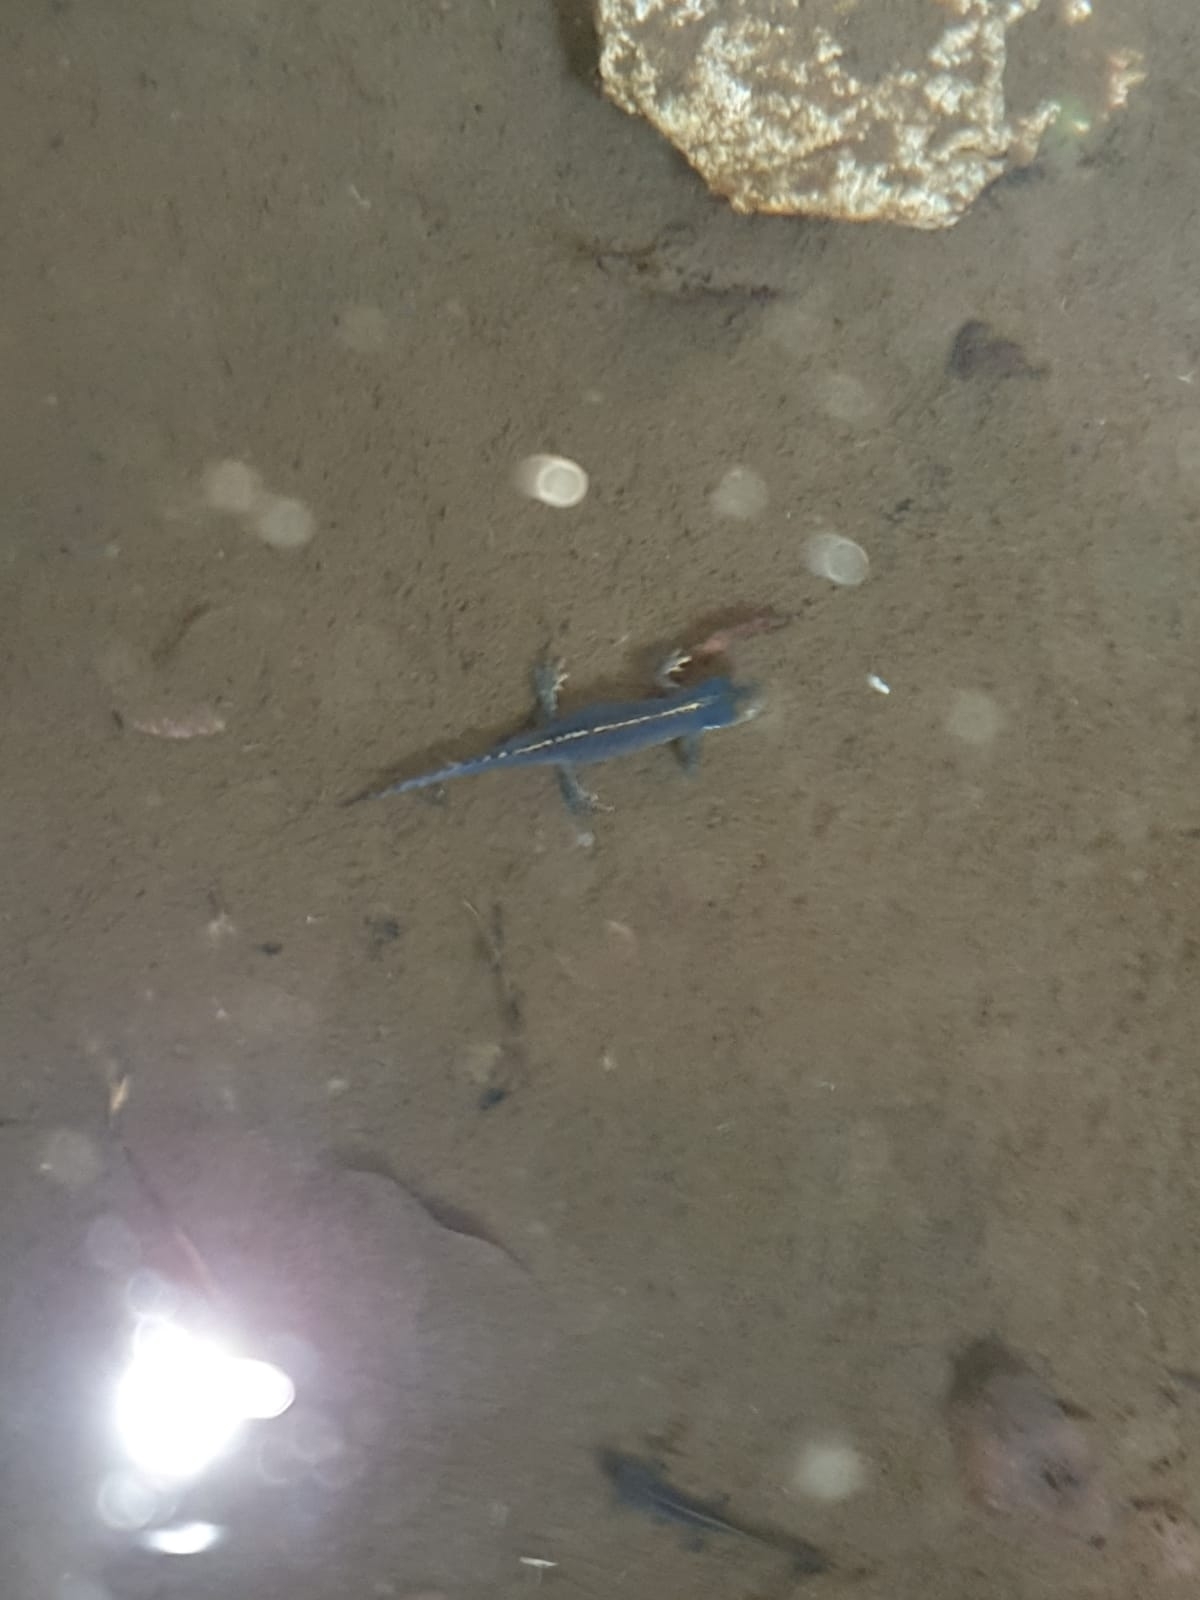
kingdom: Animalia
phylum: Chordata
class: Amphibia
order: Caudata
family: Salamandridae
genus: Ichthyosaura
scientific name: Ichthyosaura alpestris
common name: Alpine newt
